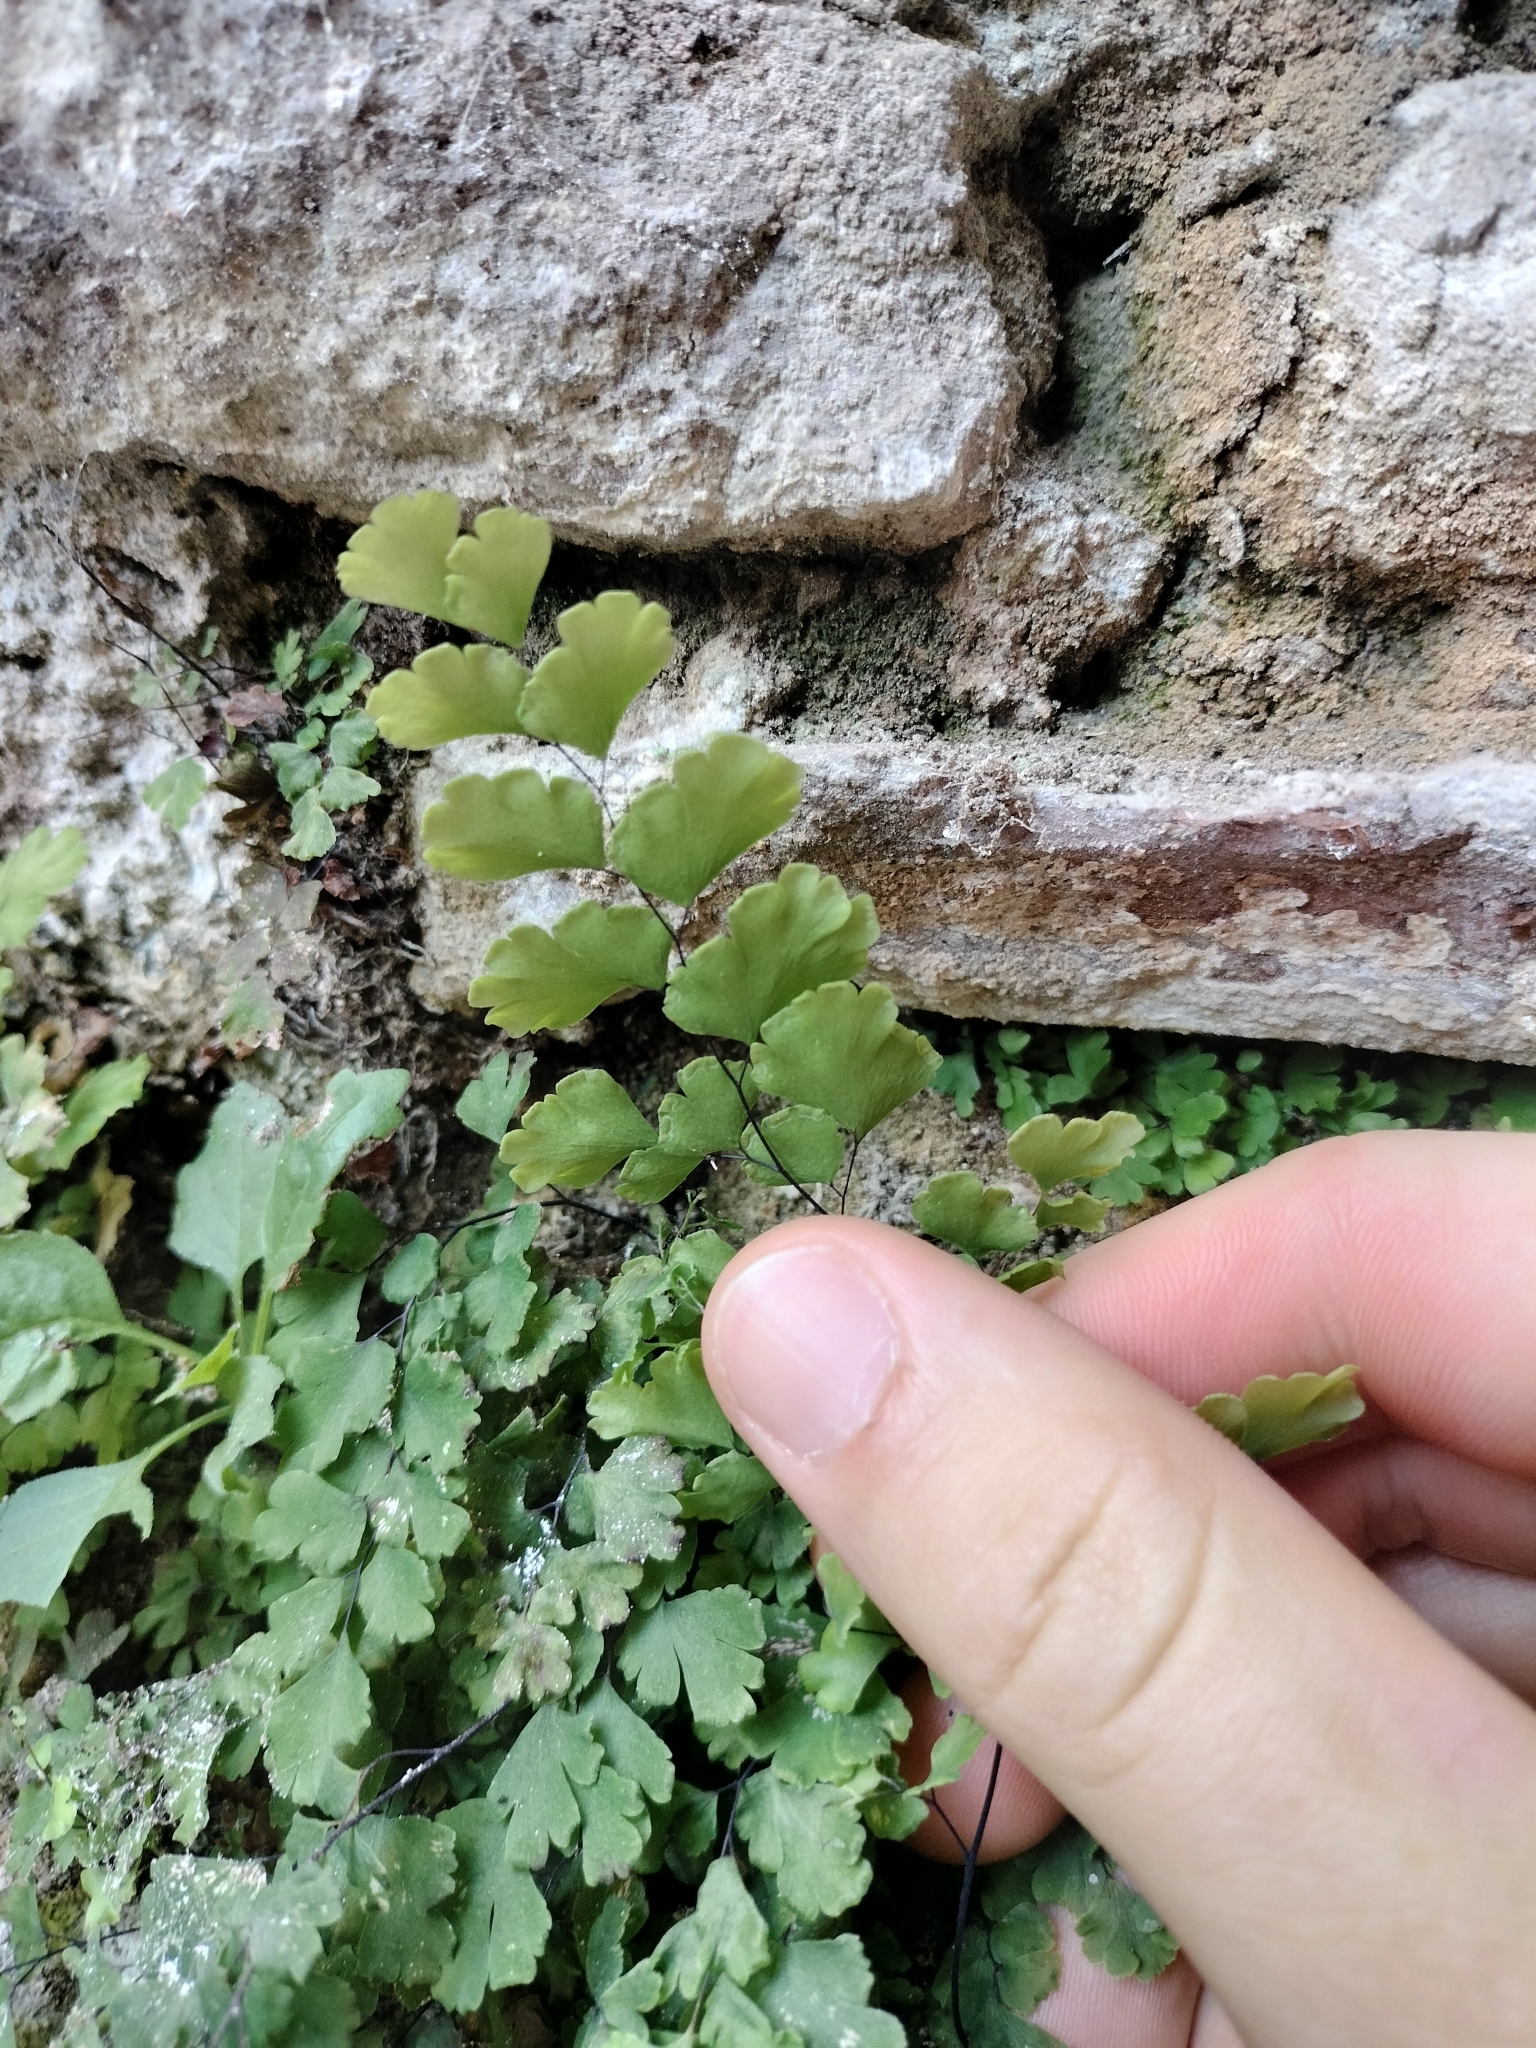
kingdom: Plantae
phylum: Tracheophyta
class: Polypodiopsida
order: Polypodiales
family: Pteridaceae
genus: Adiantum
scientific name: Adiantum capillus-veneris
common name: Maidenhair fern
